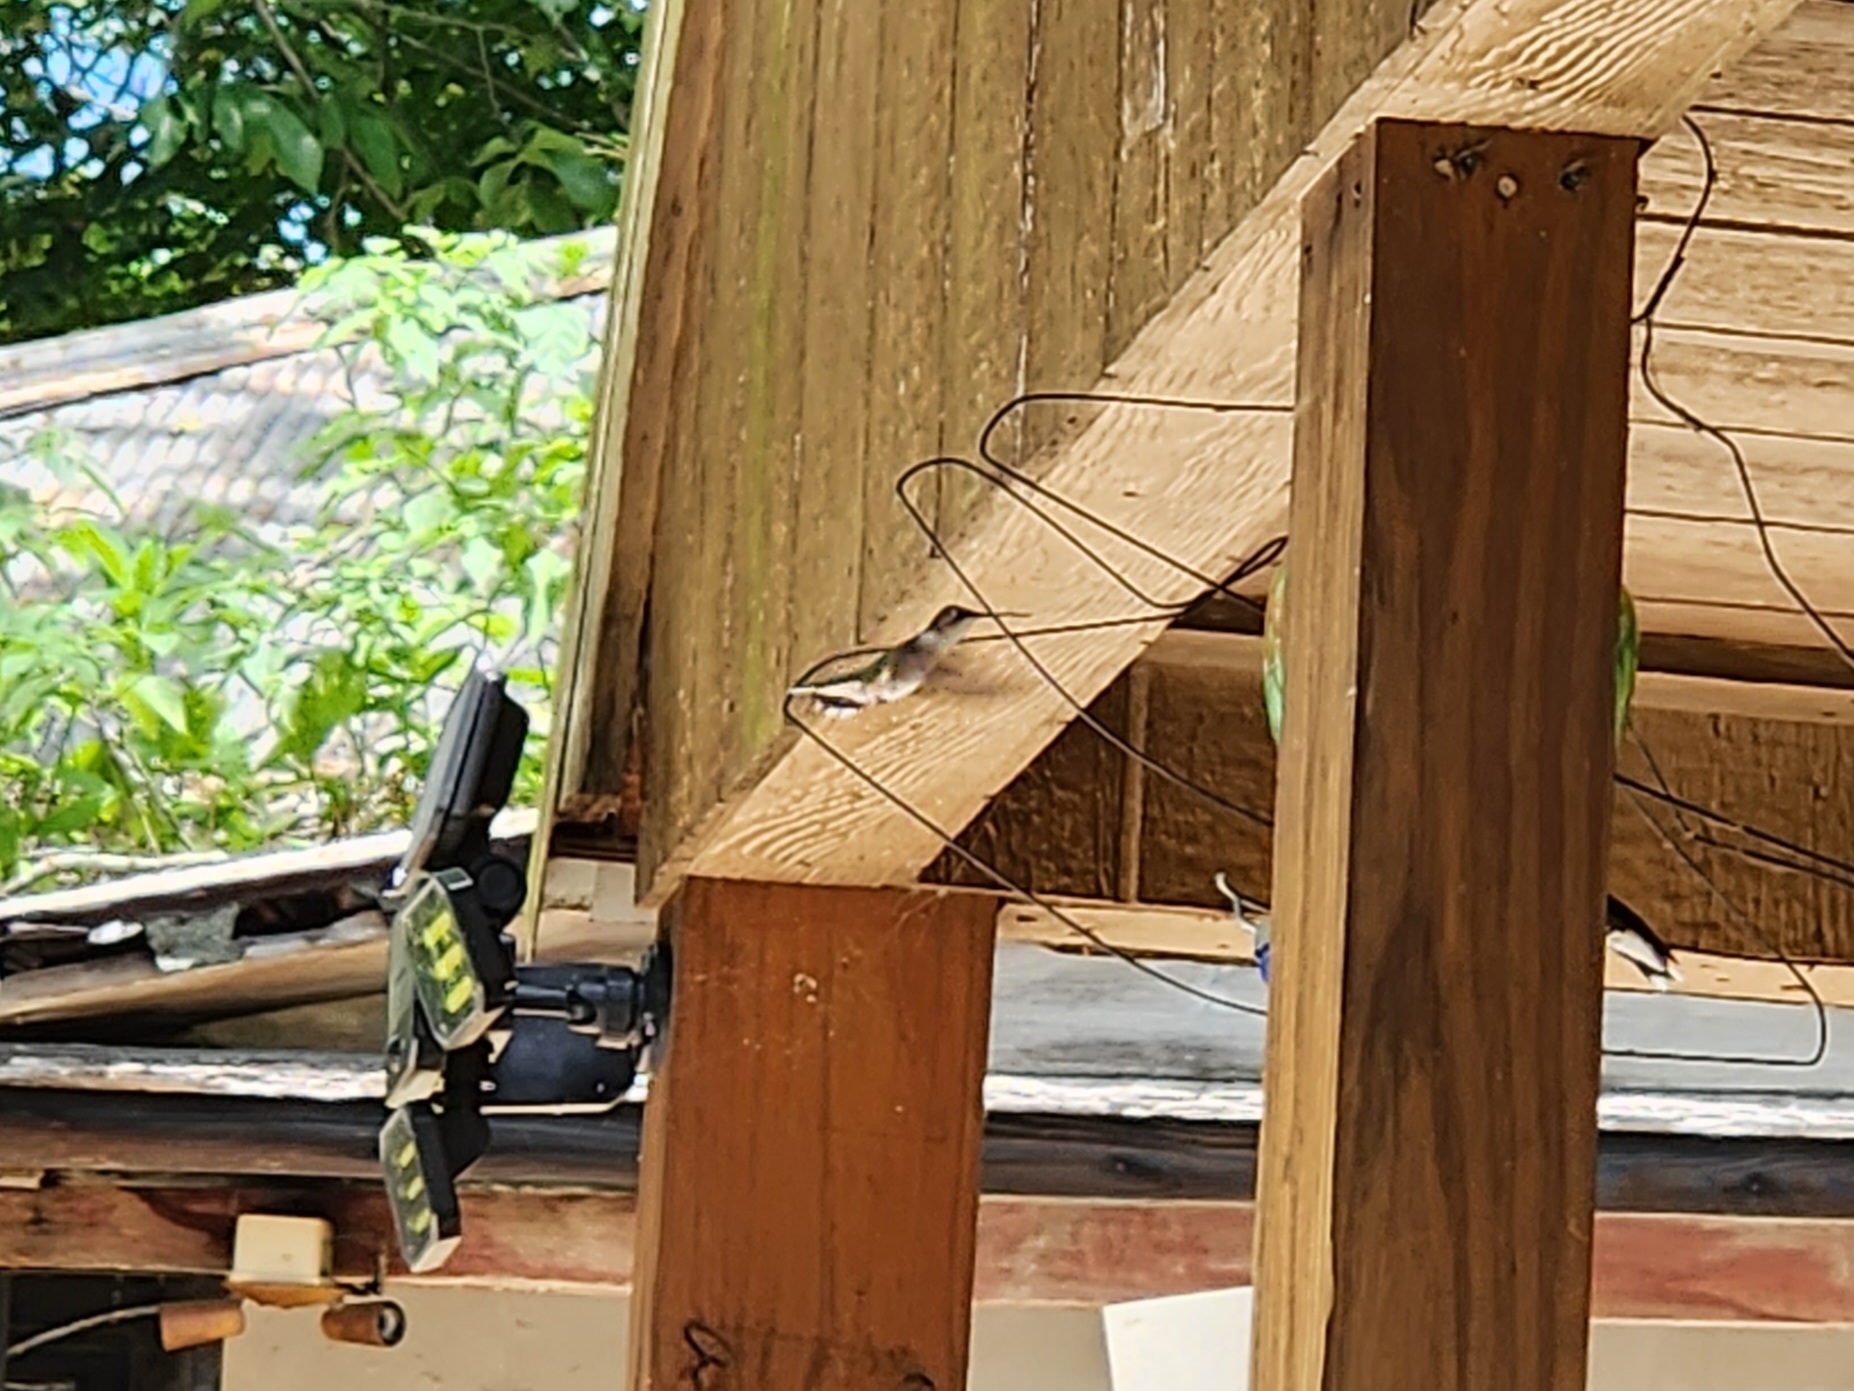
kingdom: Animalia
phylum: Chordata
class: Aves
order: Apodiformes
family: Trochilidae
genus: Archilochus
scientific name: Archilochus colubris
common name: Ruby-throated hummingbird
